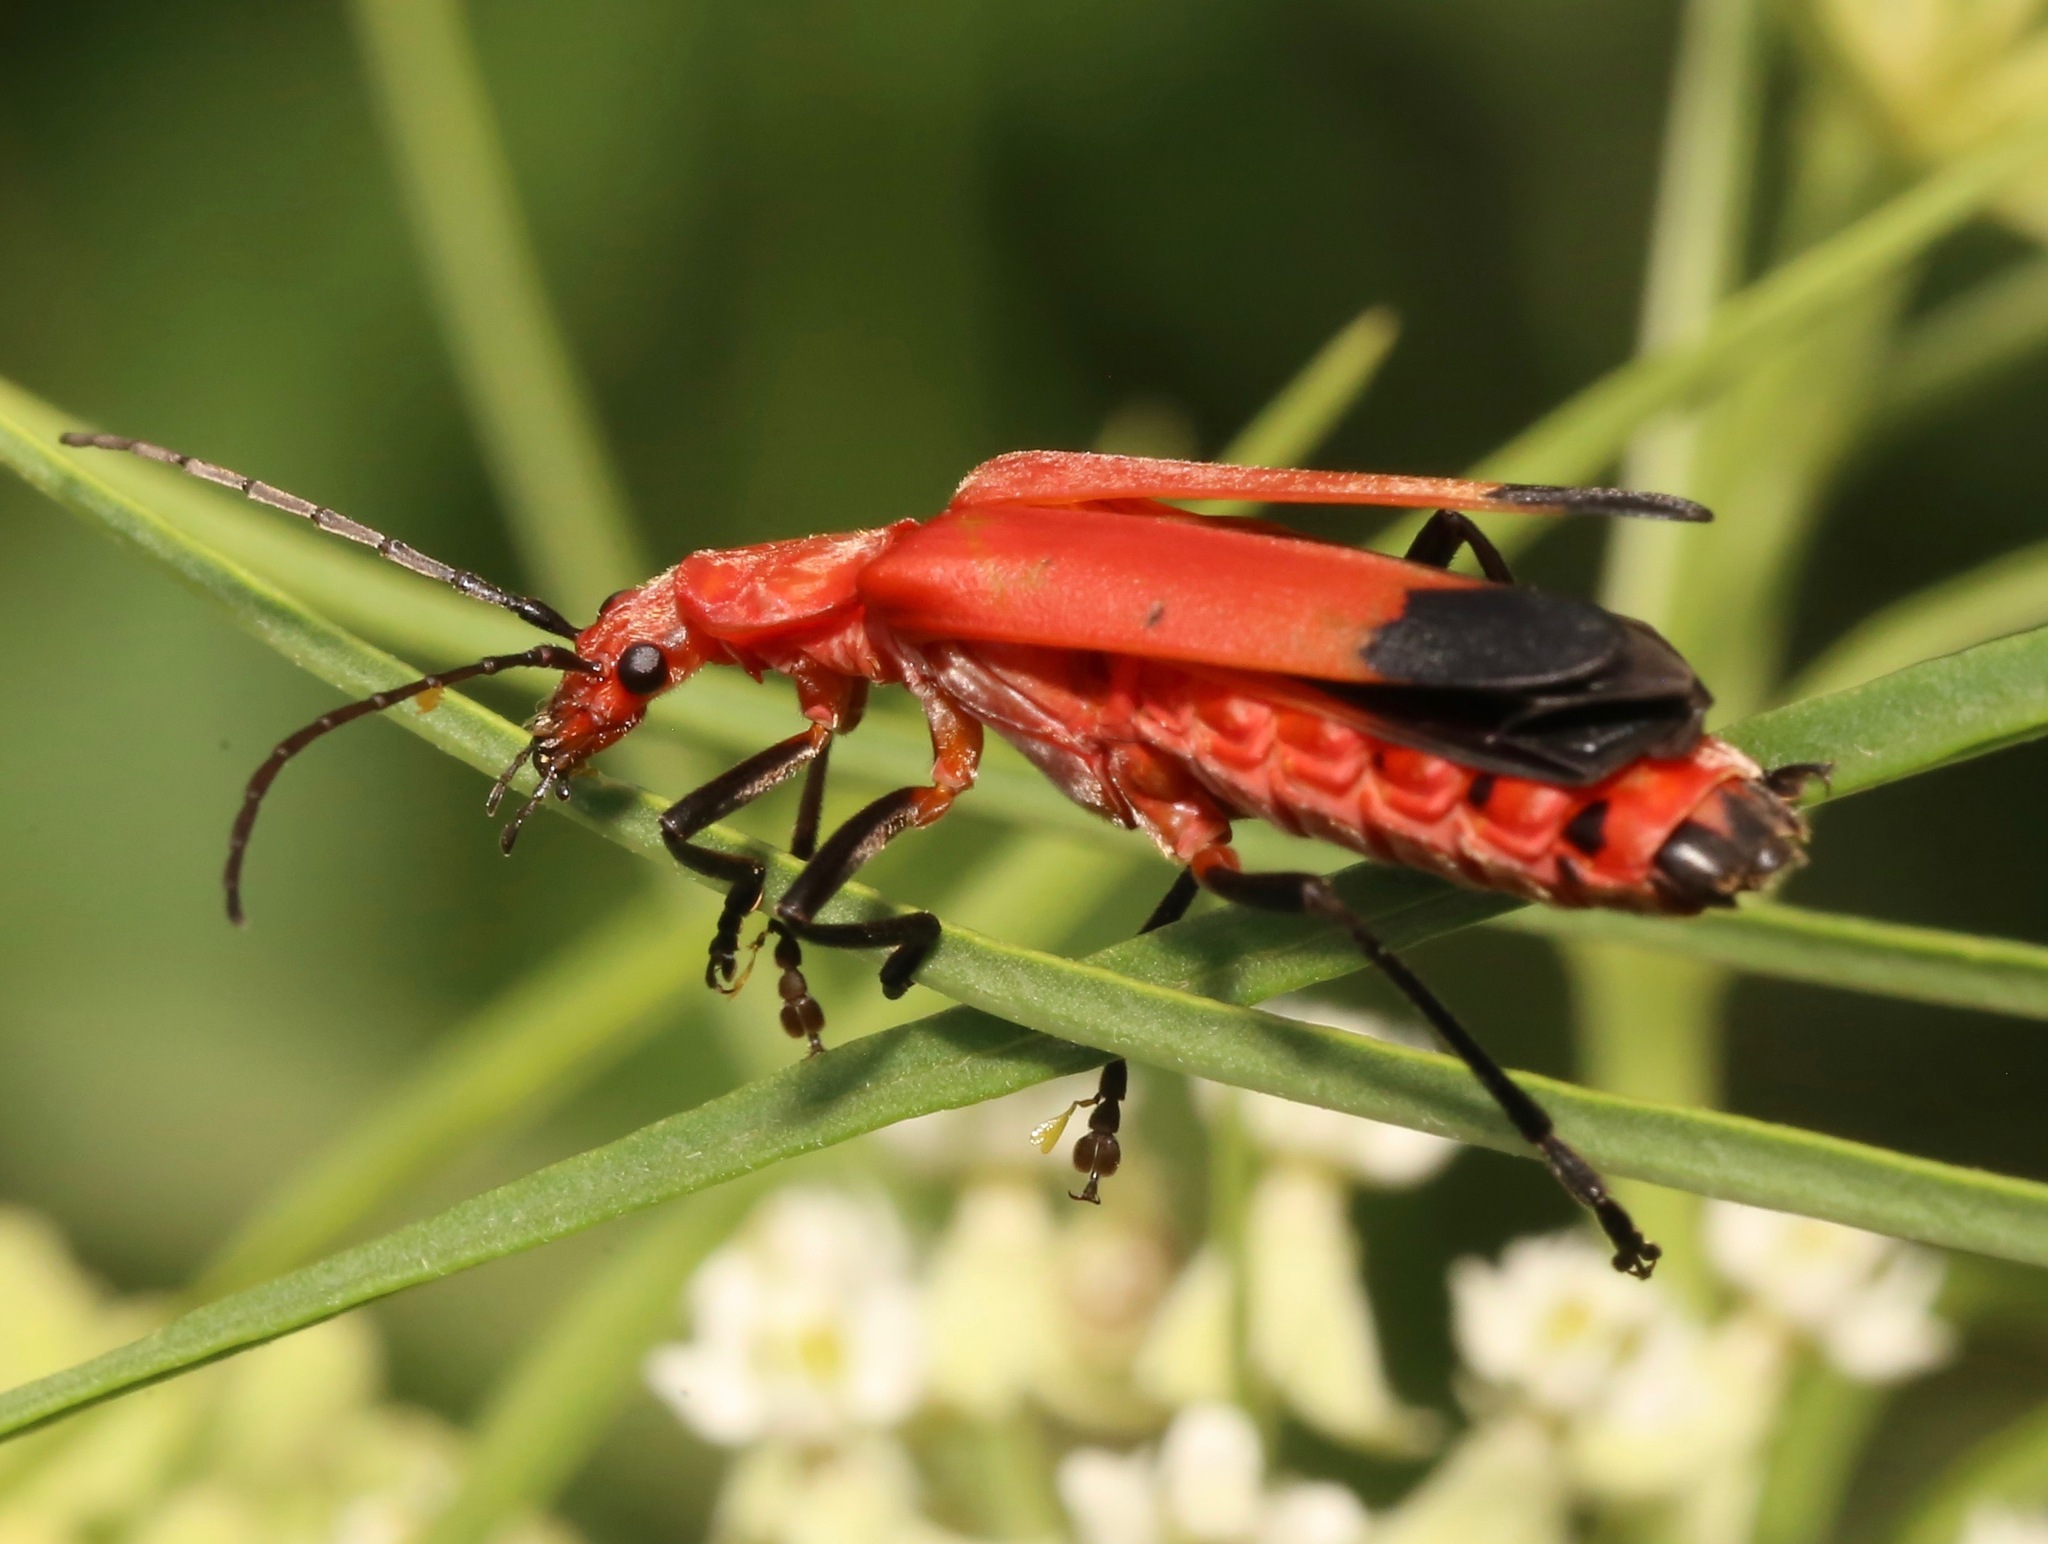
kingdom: Animalia
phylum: Arthropoda
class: Insecta
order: Coleoptera
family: Cantharidae
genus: Chauliognathus
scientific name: Chauliognathus lecontei
